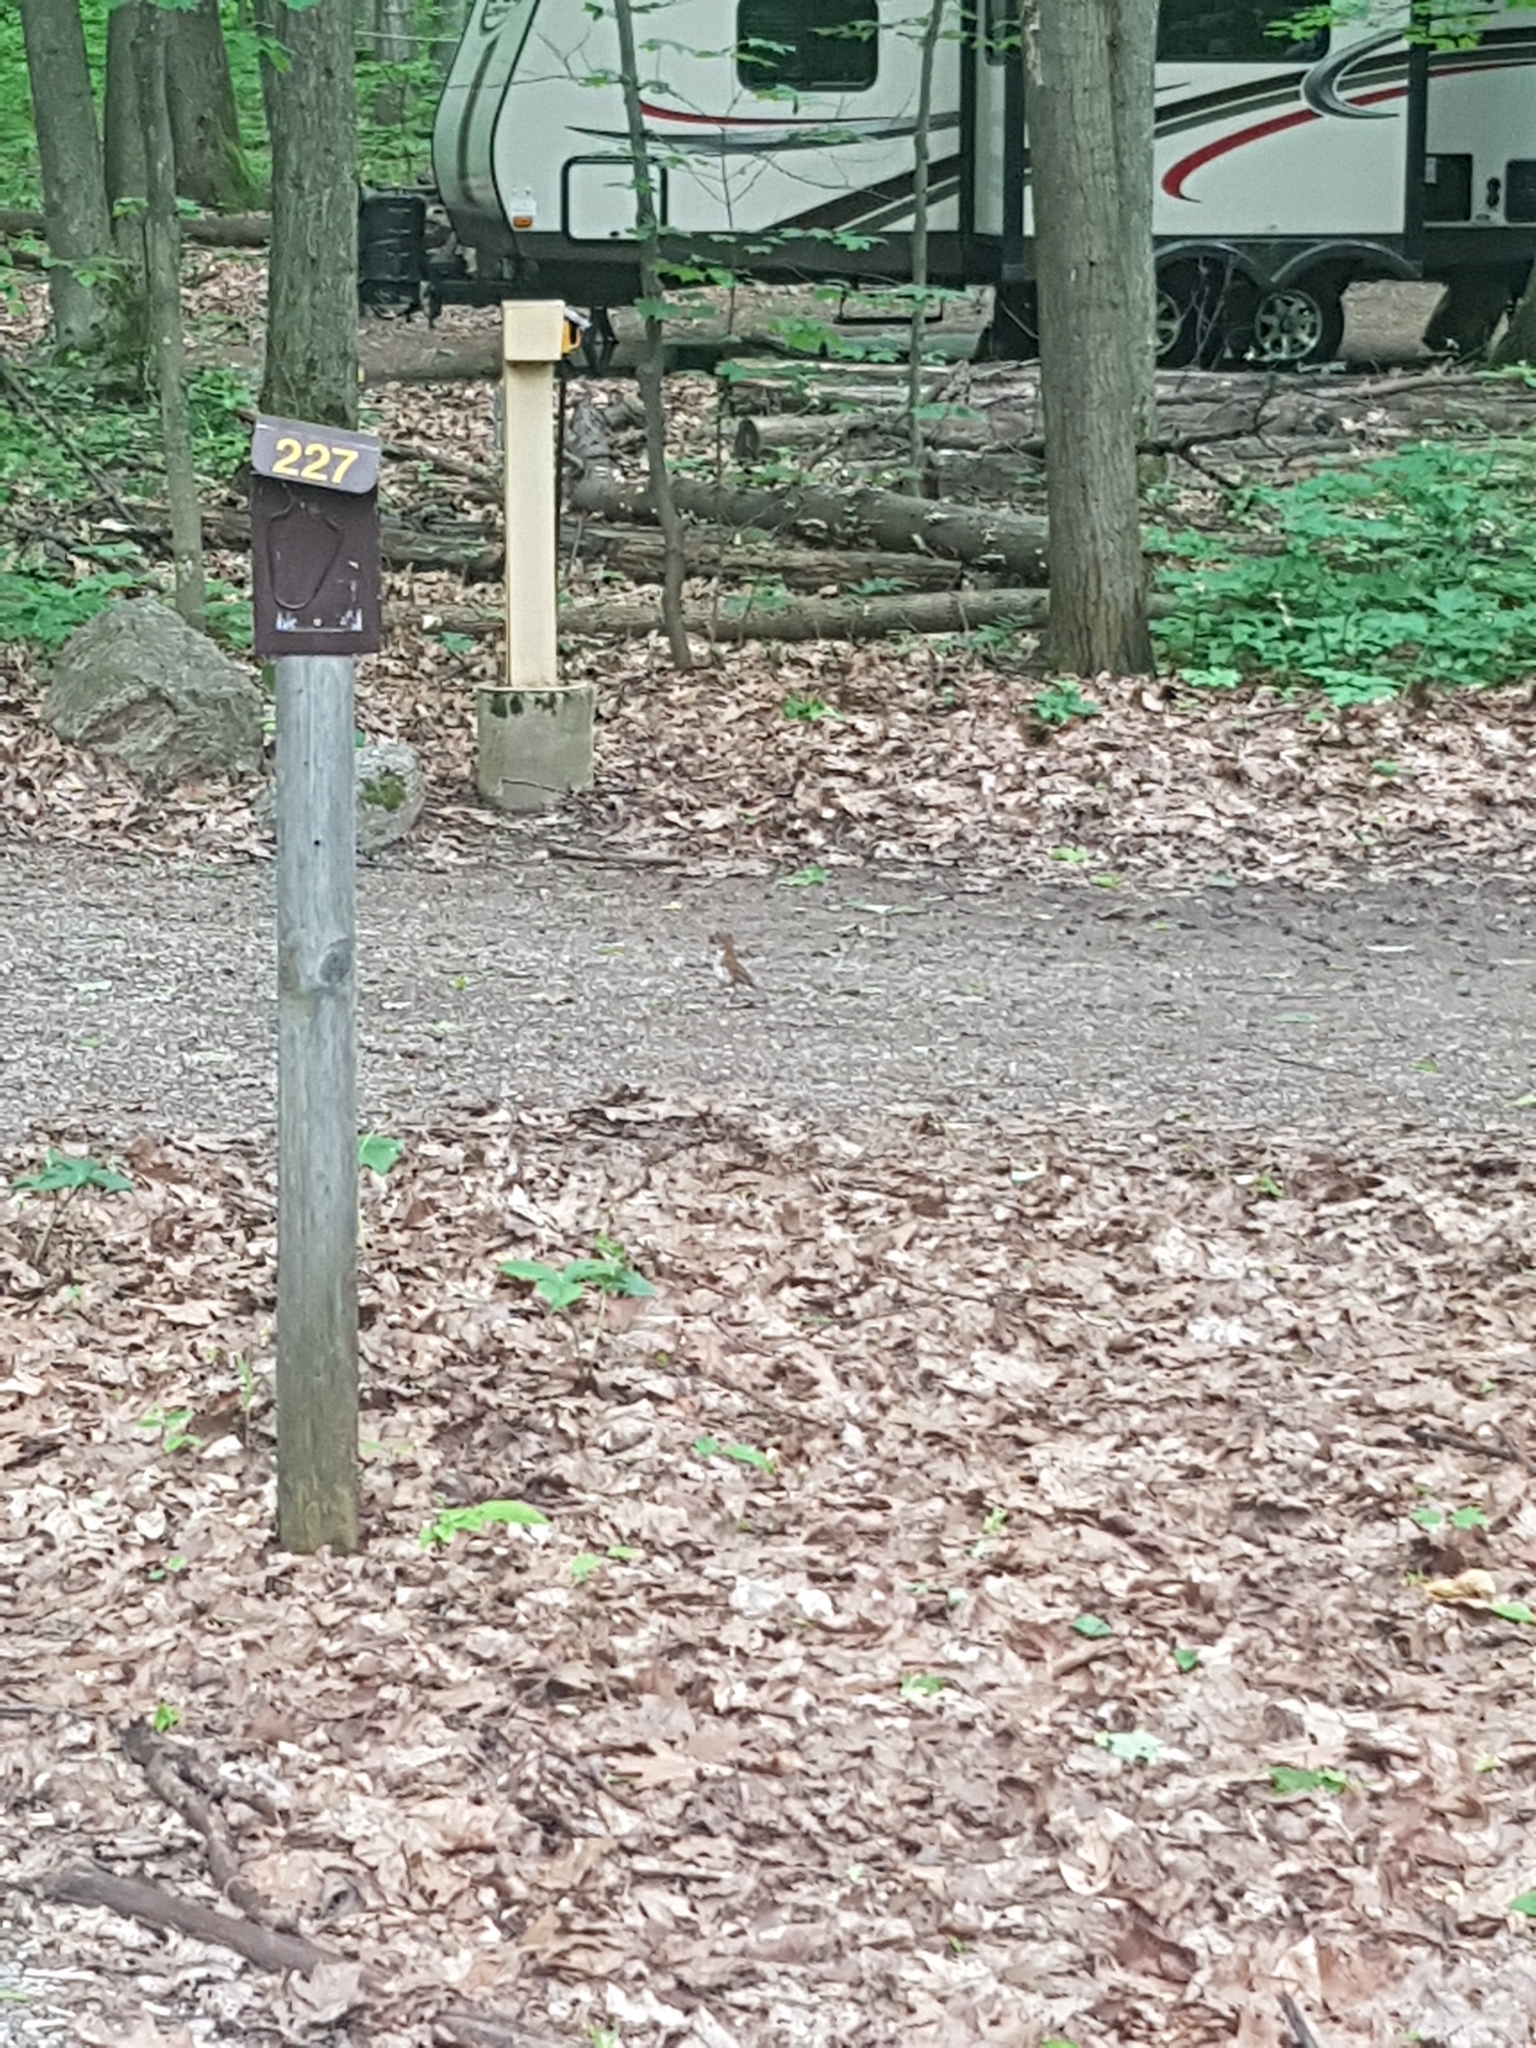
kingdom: Animalia
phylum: Chordata
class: Aves
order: Passeriformes
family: Turdidae
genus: Hylocichla
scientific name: Hylocichla mustelina
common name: Wood thrush
